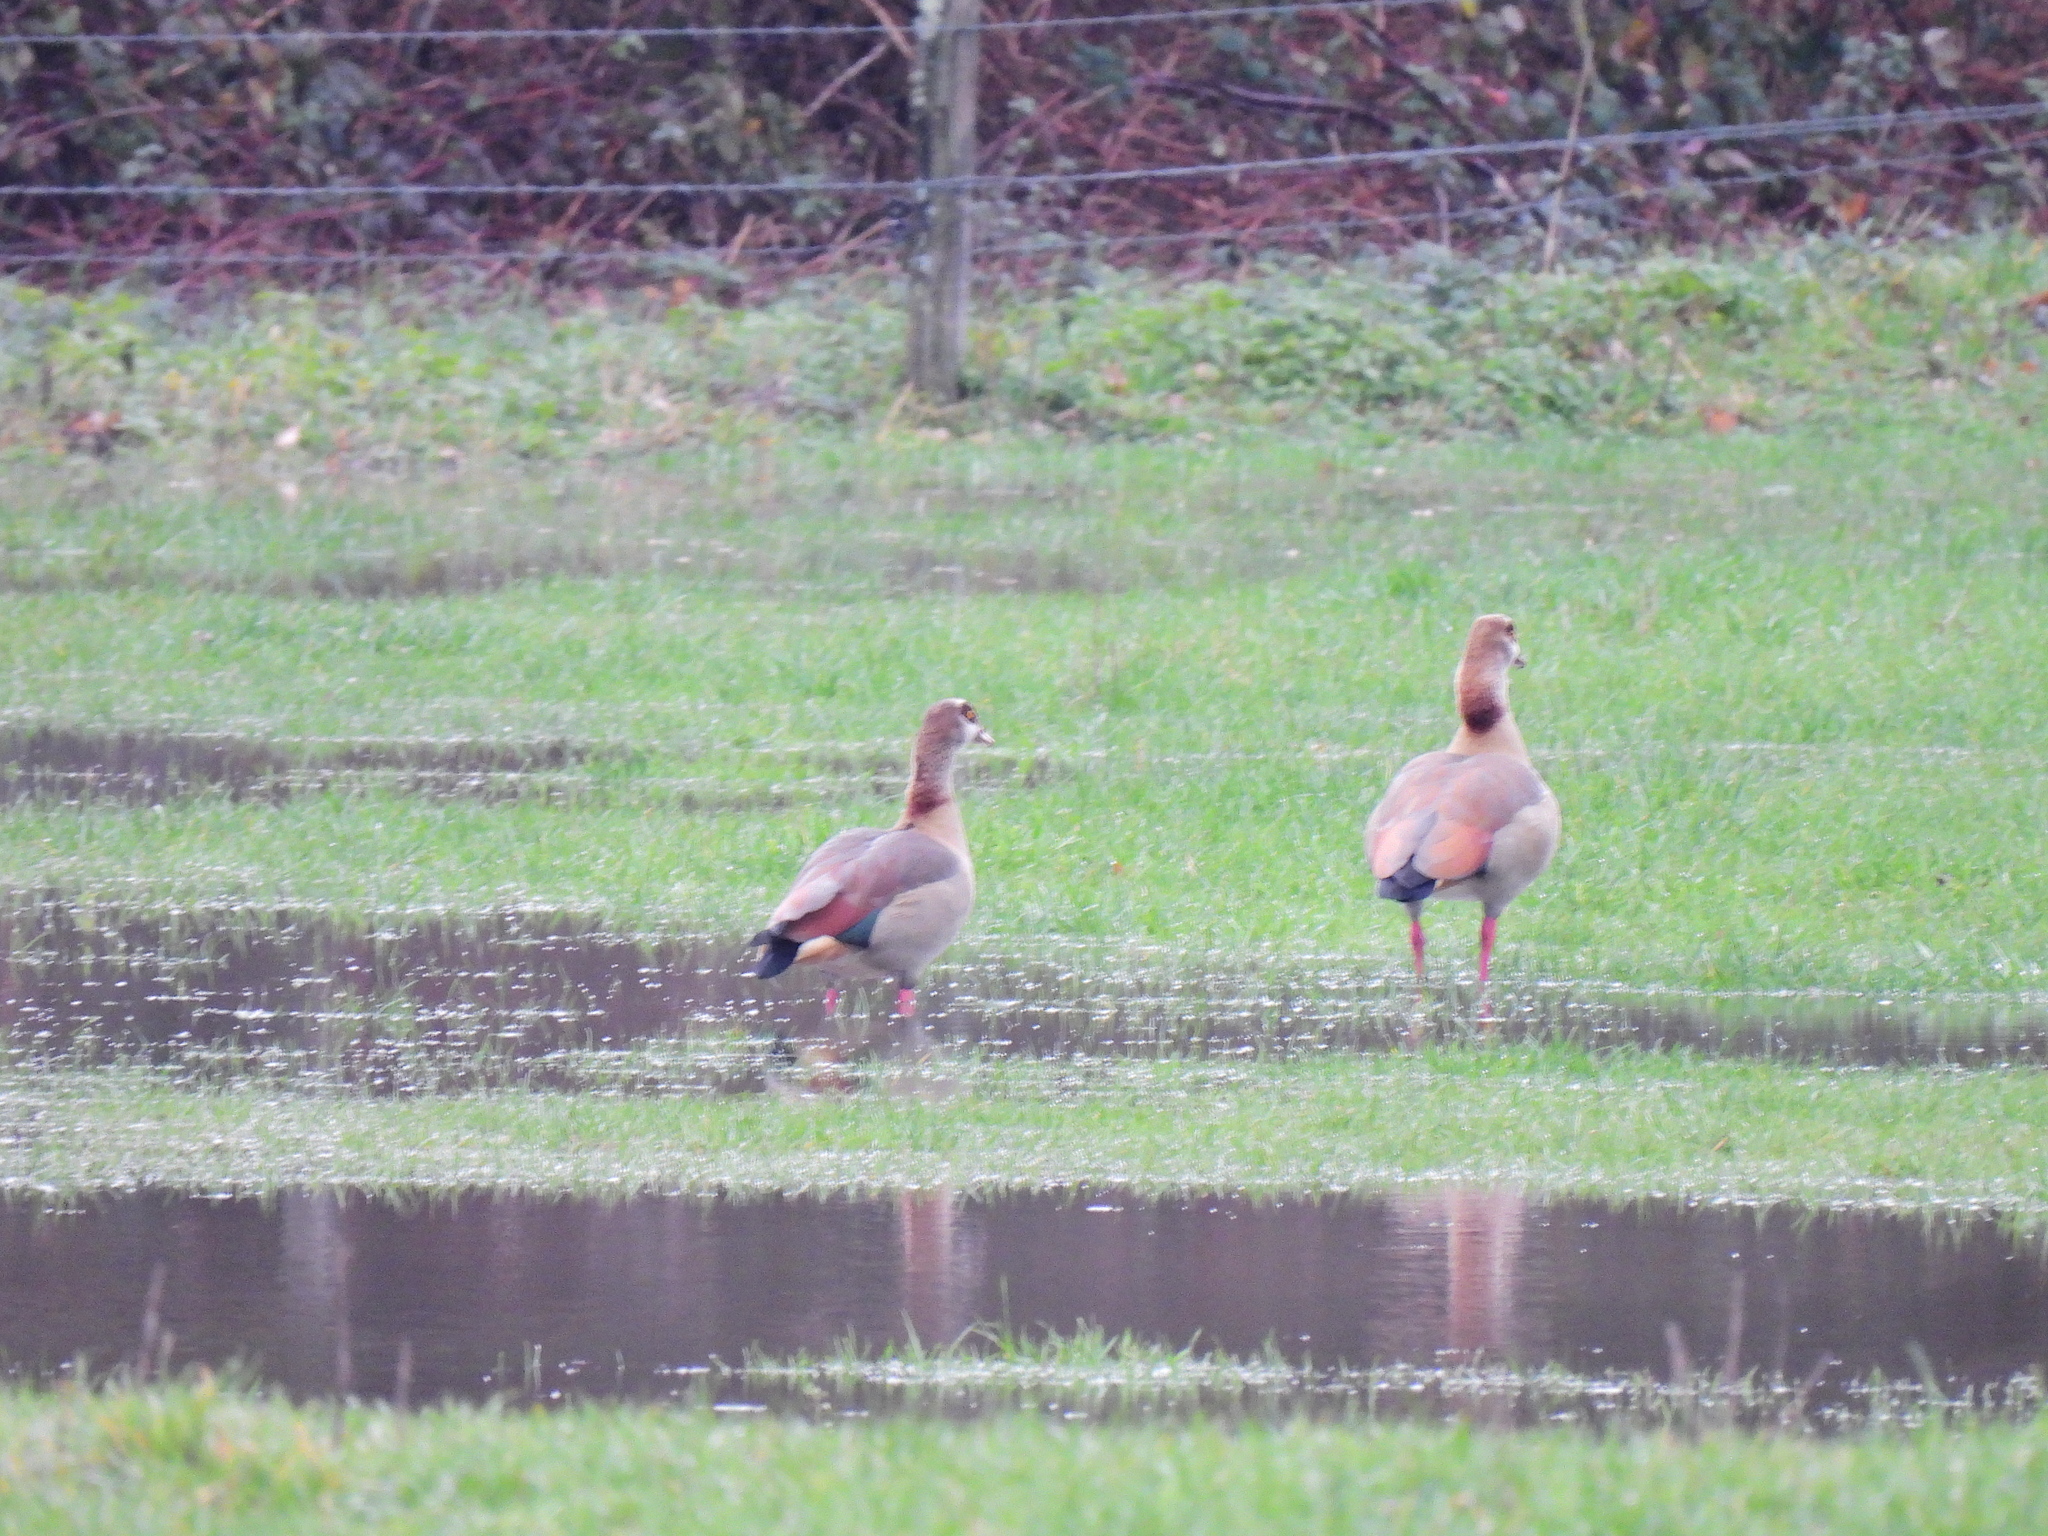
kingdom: Animalia
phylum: Chordata
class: Aves
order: Anseriformes
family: Anatidae
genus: Alopochen
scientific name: Alopochen aegyptiaca
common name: Egyptian goose
